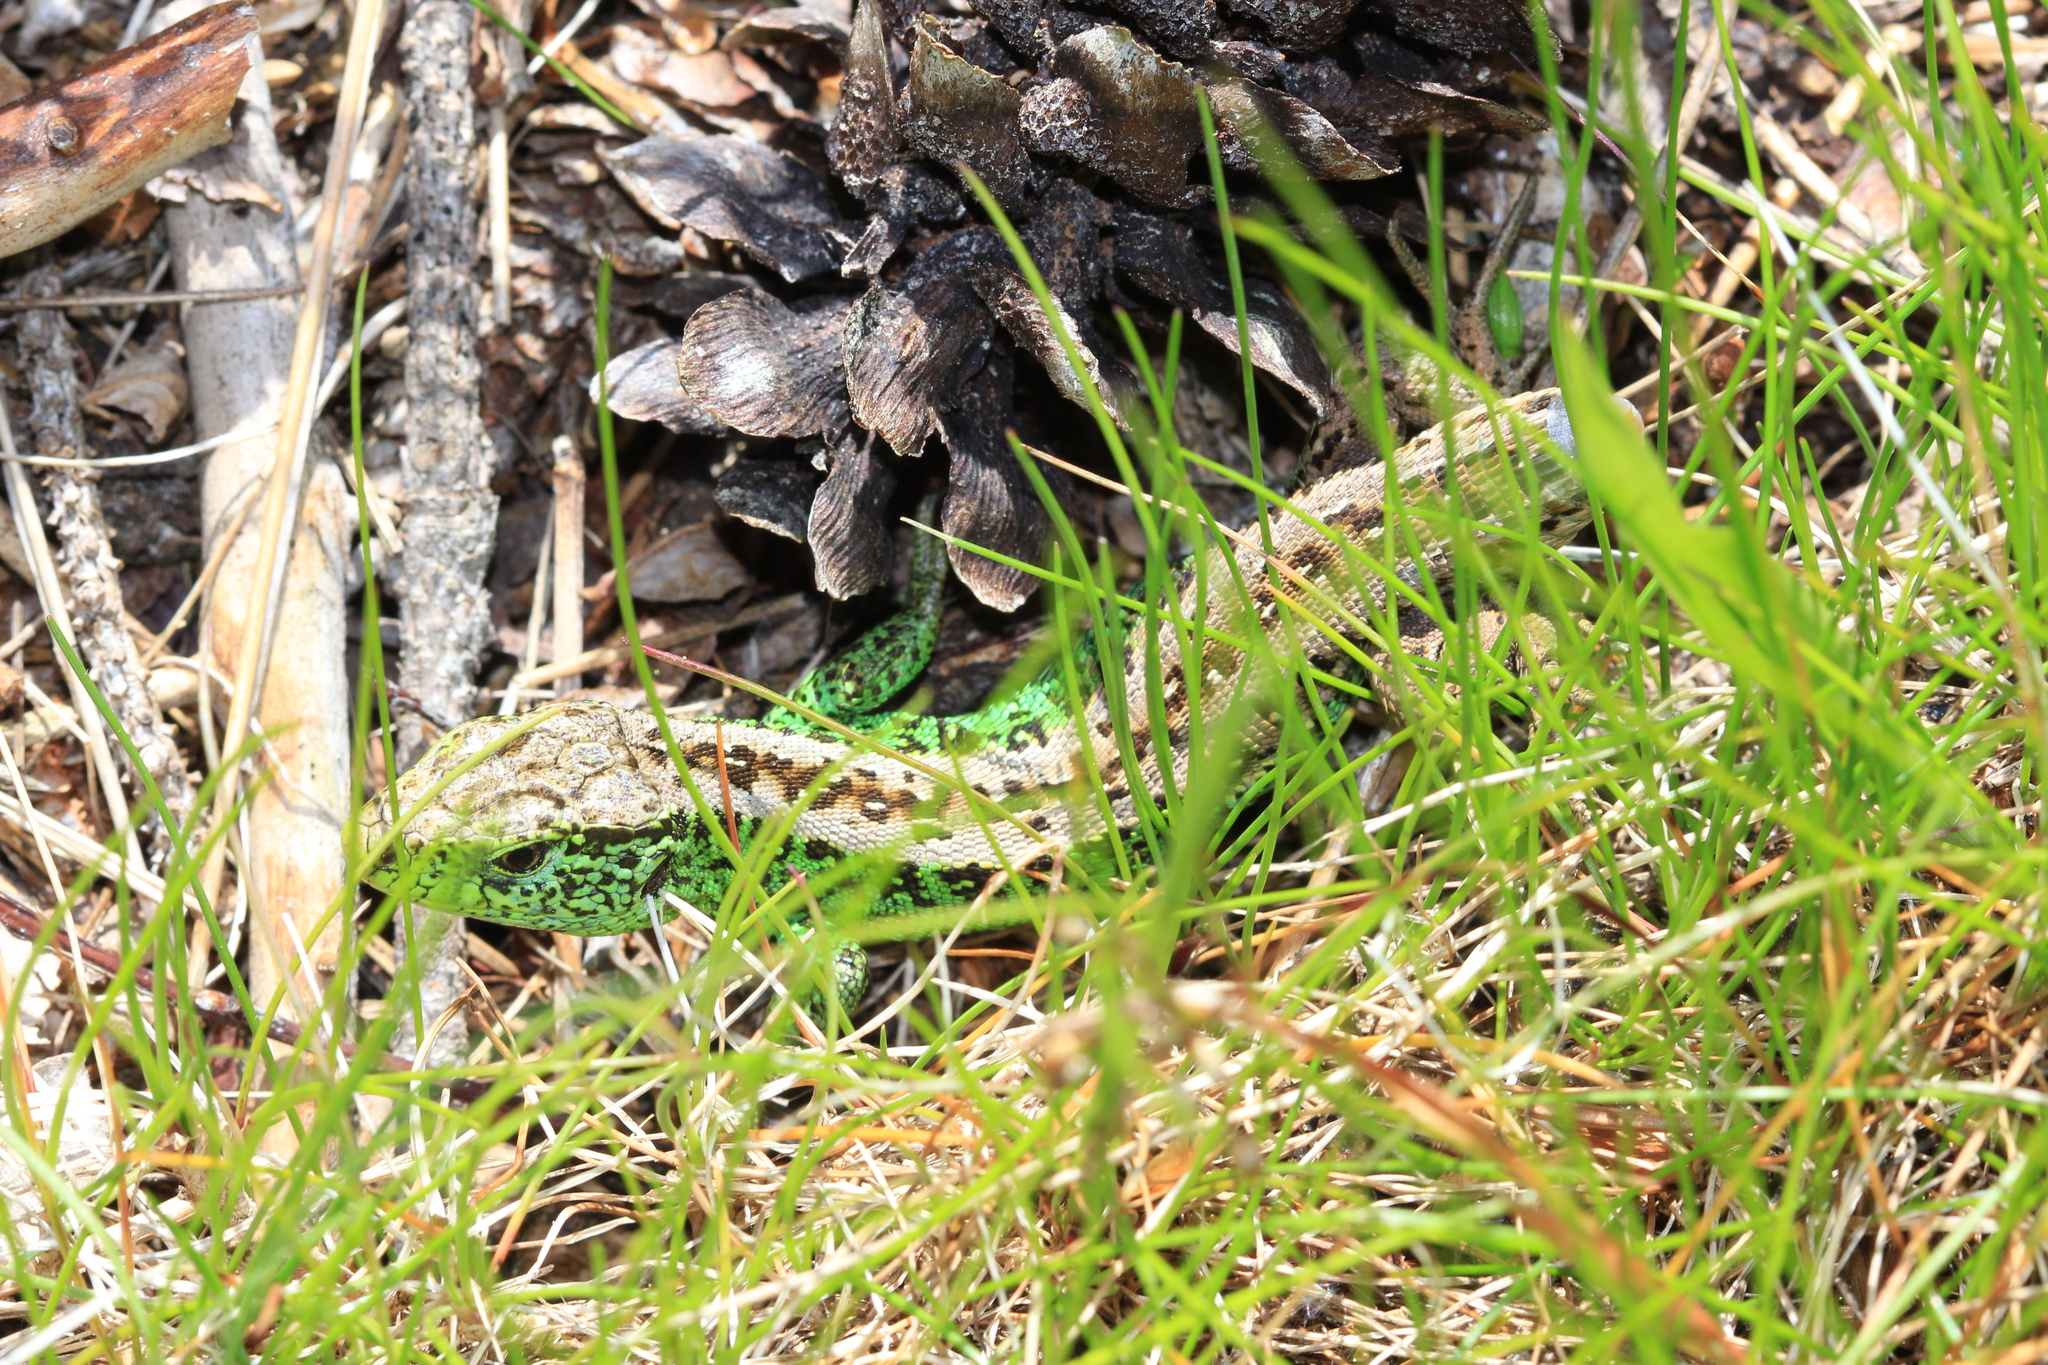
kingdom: Animalia
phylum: Chordata
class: Squamata
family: Lacertidae
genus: Lacerta
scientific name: Lacerta agilis
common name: Sand lizard
